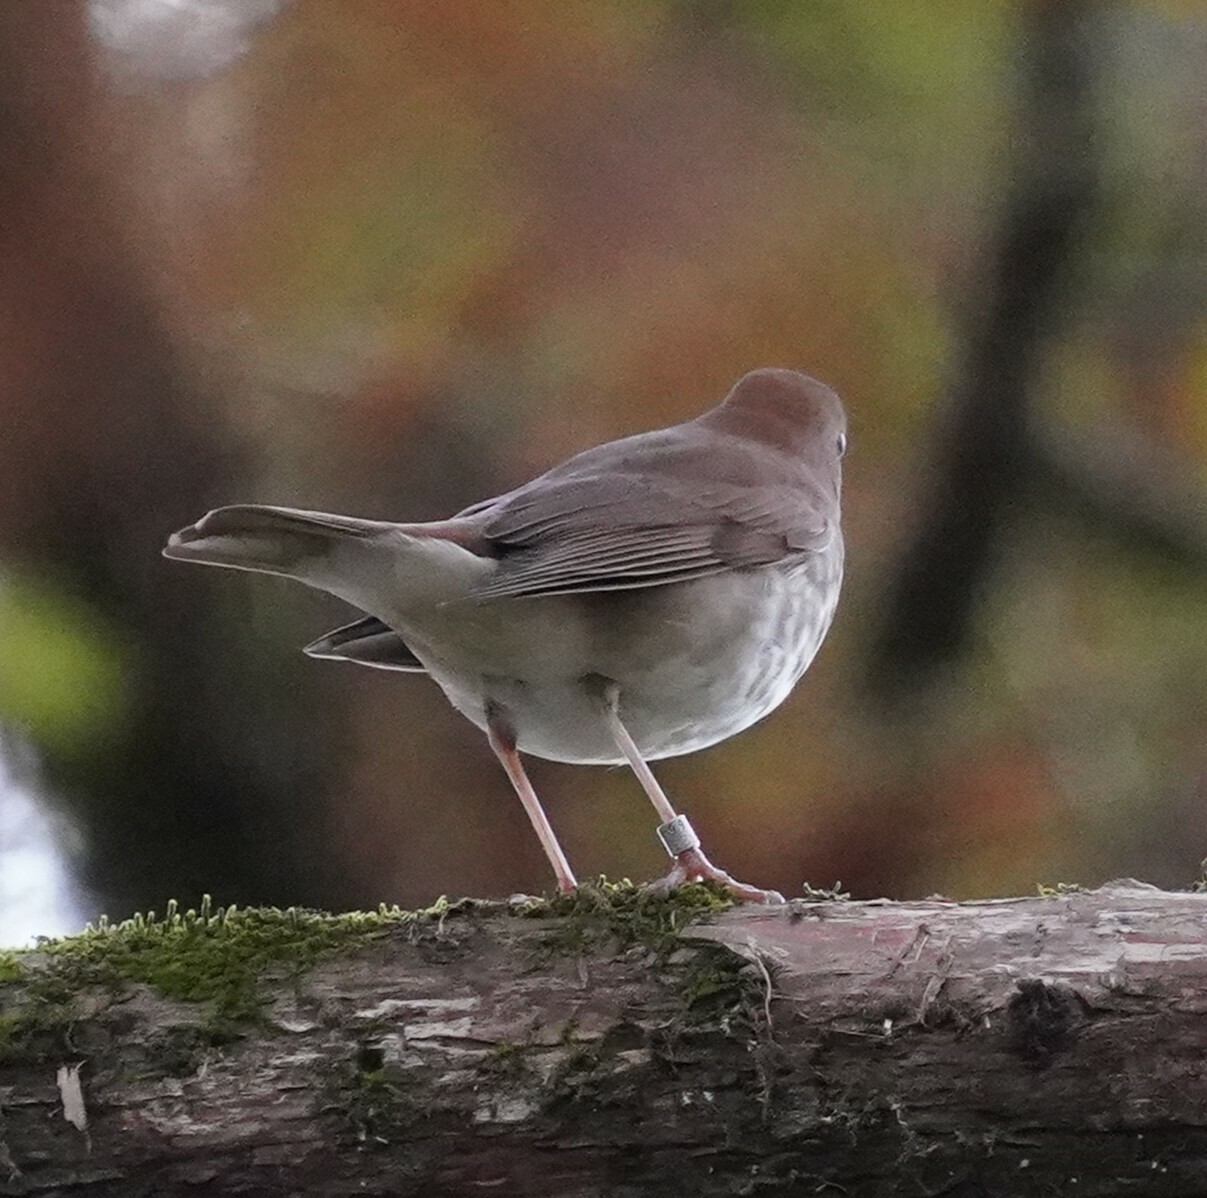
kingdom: Animalia
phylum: Chordata
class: Aves
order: Passeriformes
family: Turdidae
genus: Catharus
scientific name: Catharus guttatus
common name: Hermit thrush
